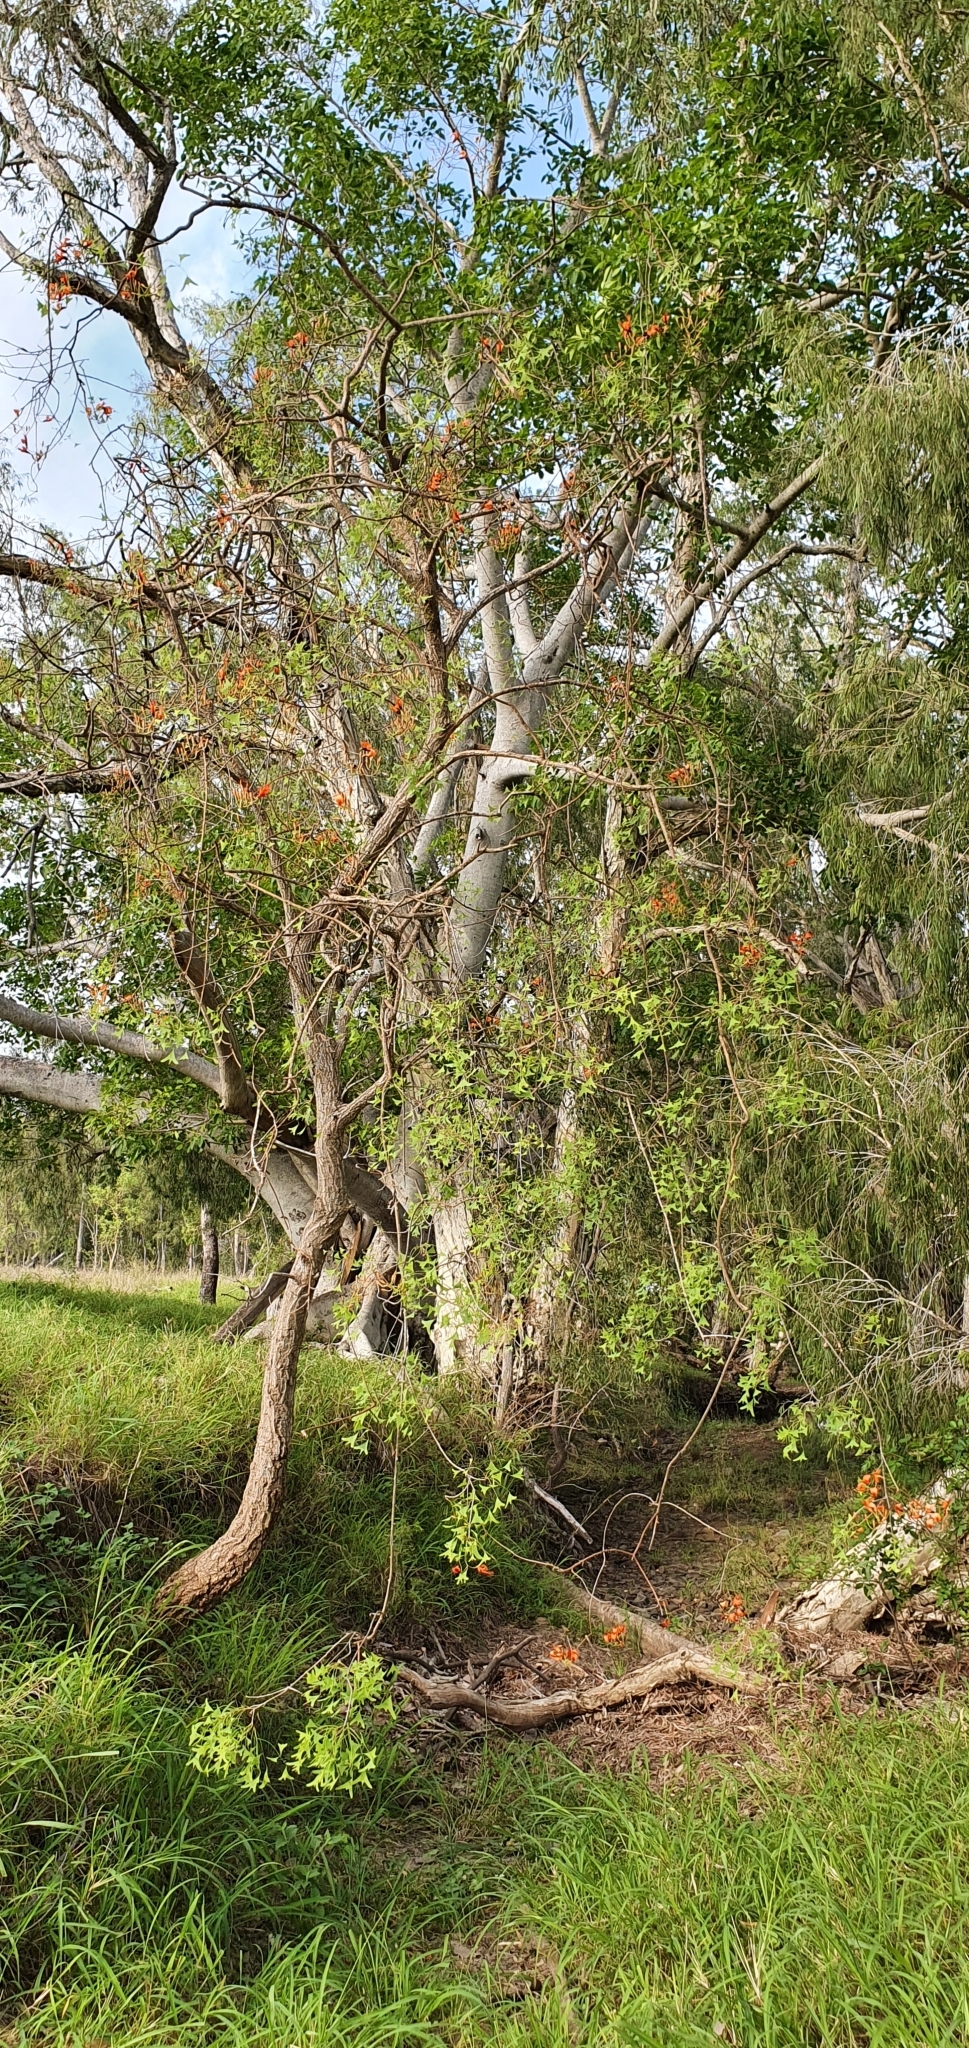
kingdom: Plantae
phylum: Tracheophyta
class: Magnoliopsida
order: Fabales
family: Fabaceae
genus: Erythrina
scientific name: Erythrina vespertilio
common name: Bat-wing coral tree
